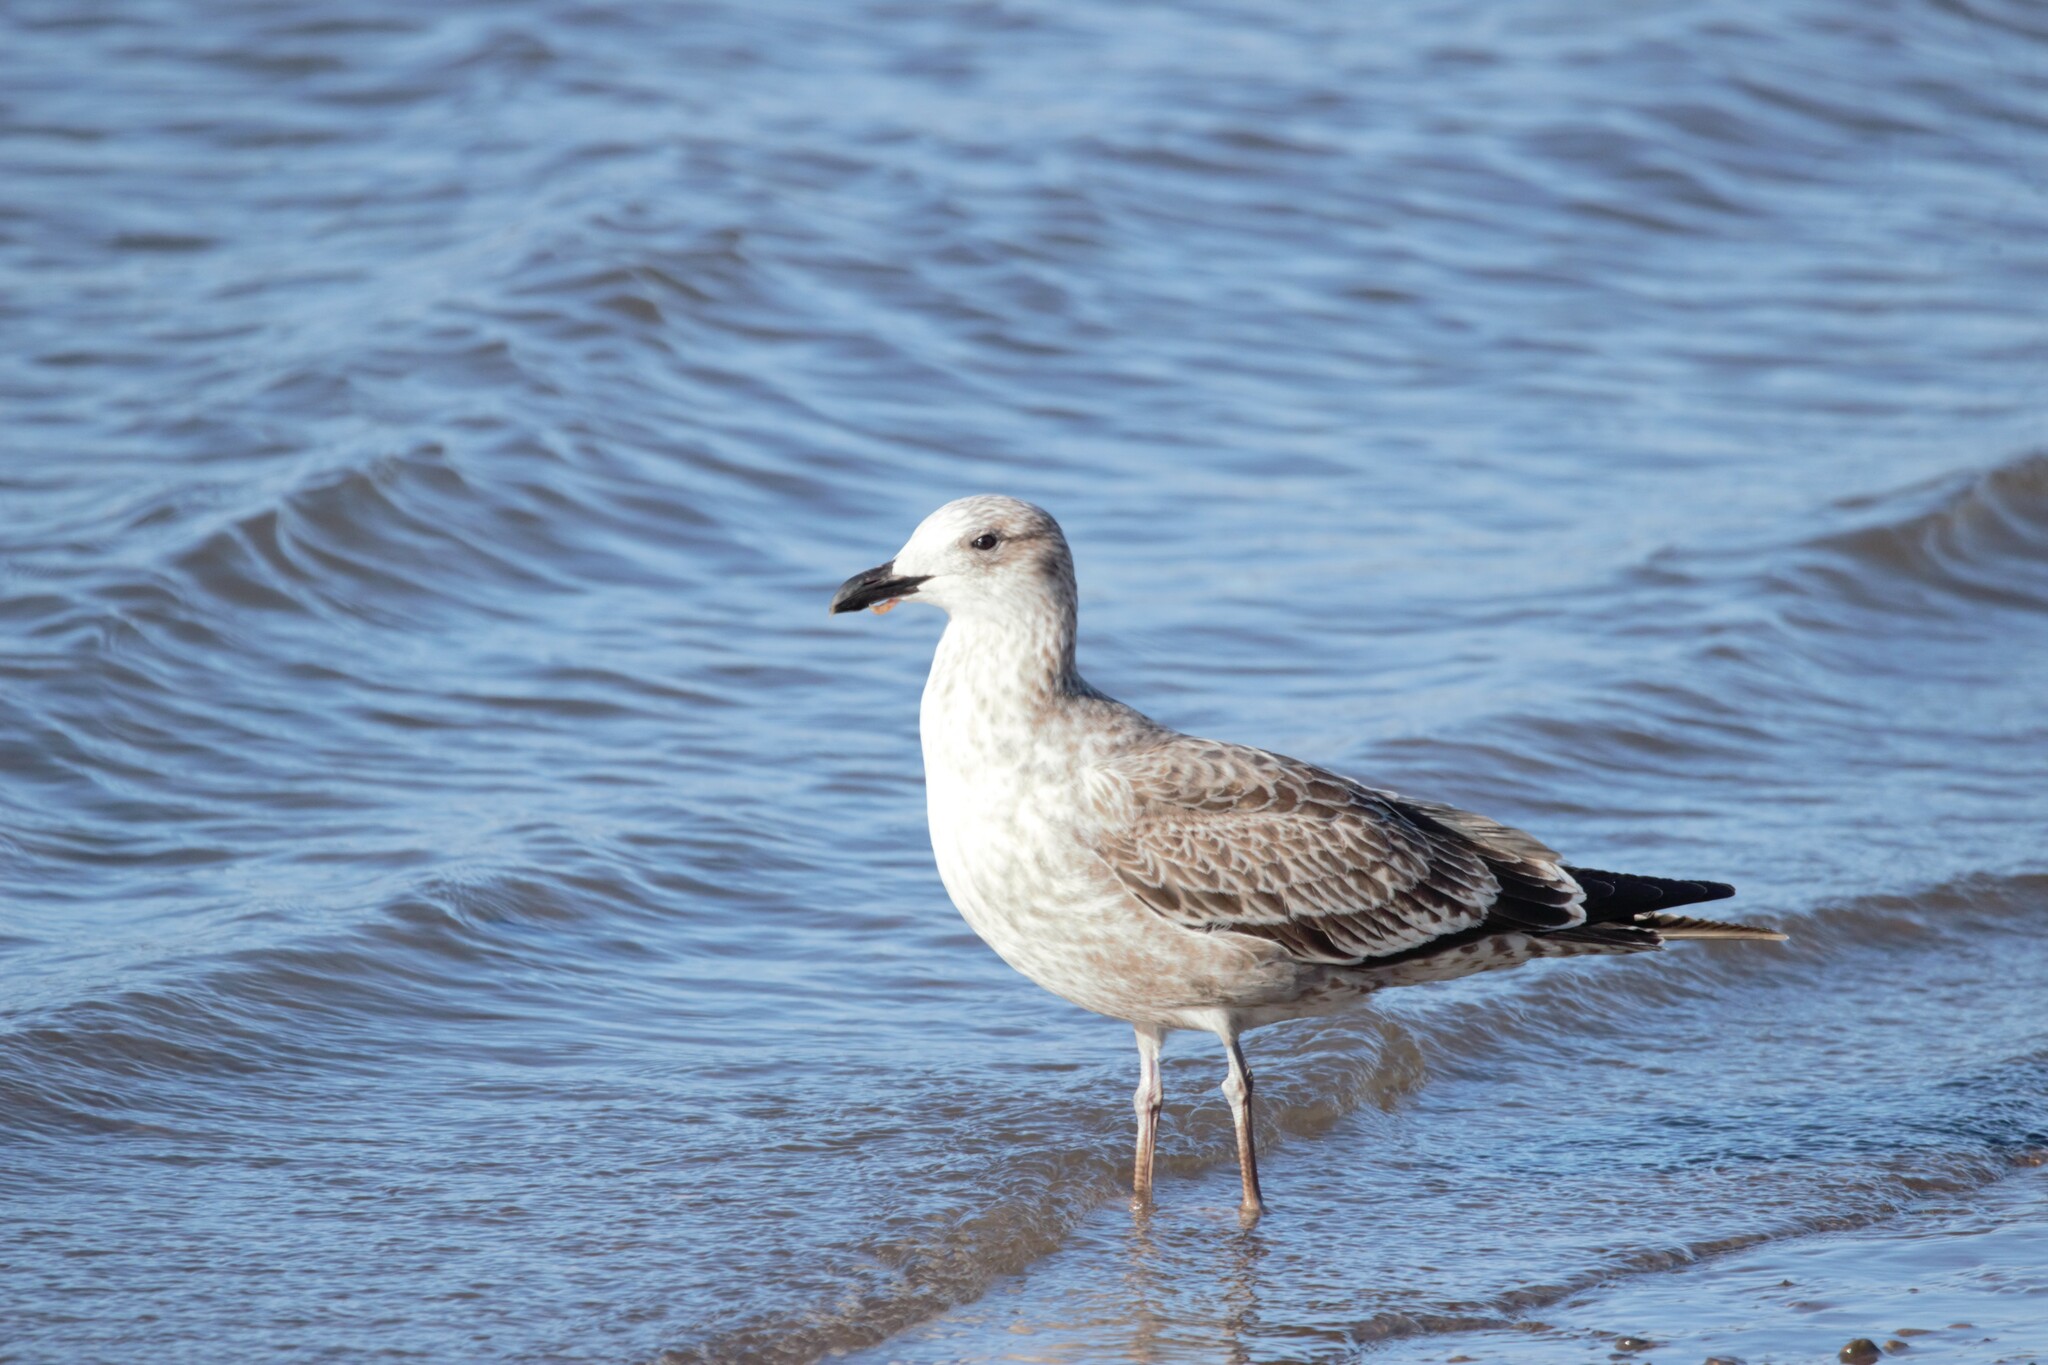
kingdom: Animalia
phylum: Chordata
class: Aves
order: Charadriiformes
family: Laridae
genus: Larus
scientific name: Larus dominicanus
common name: Kelp gull
